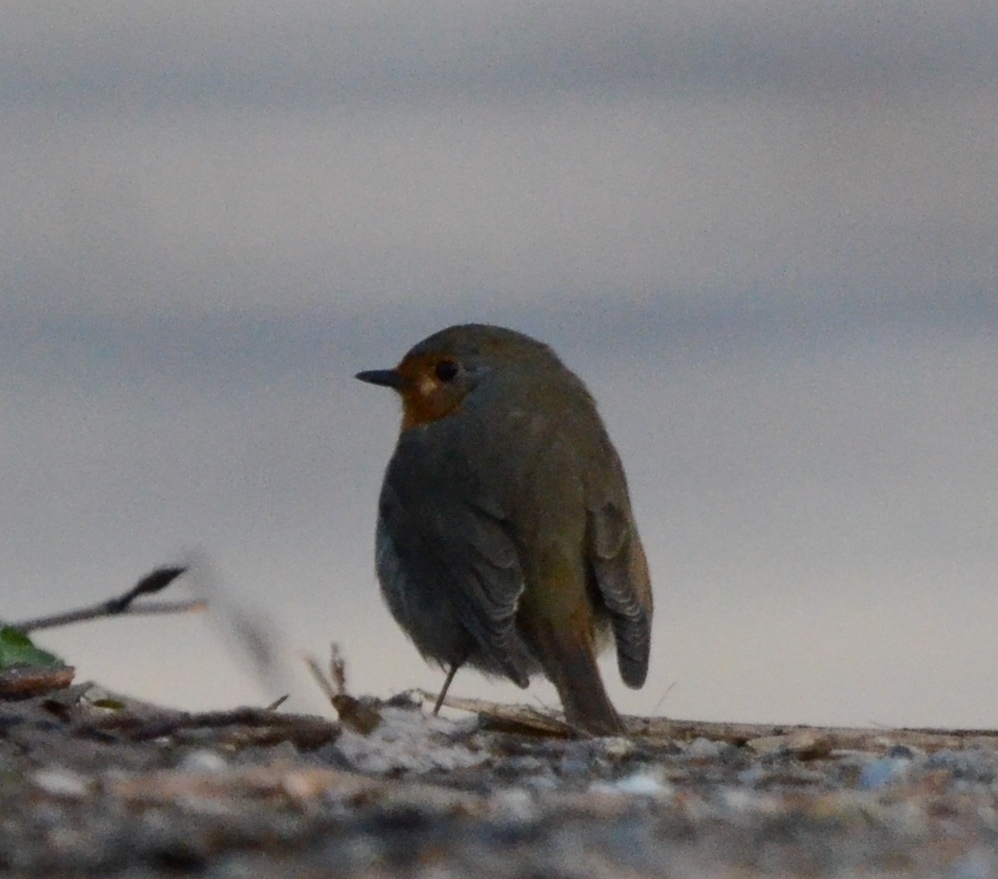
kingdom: Animalia
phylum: Chordata
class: Aves
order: Passeriformes
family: Muscicapidae
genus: Erithacus
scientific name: Erithacus rubecula
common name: European robin
